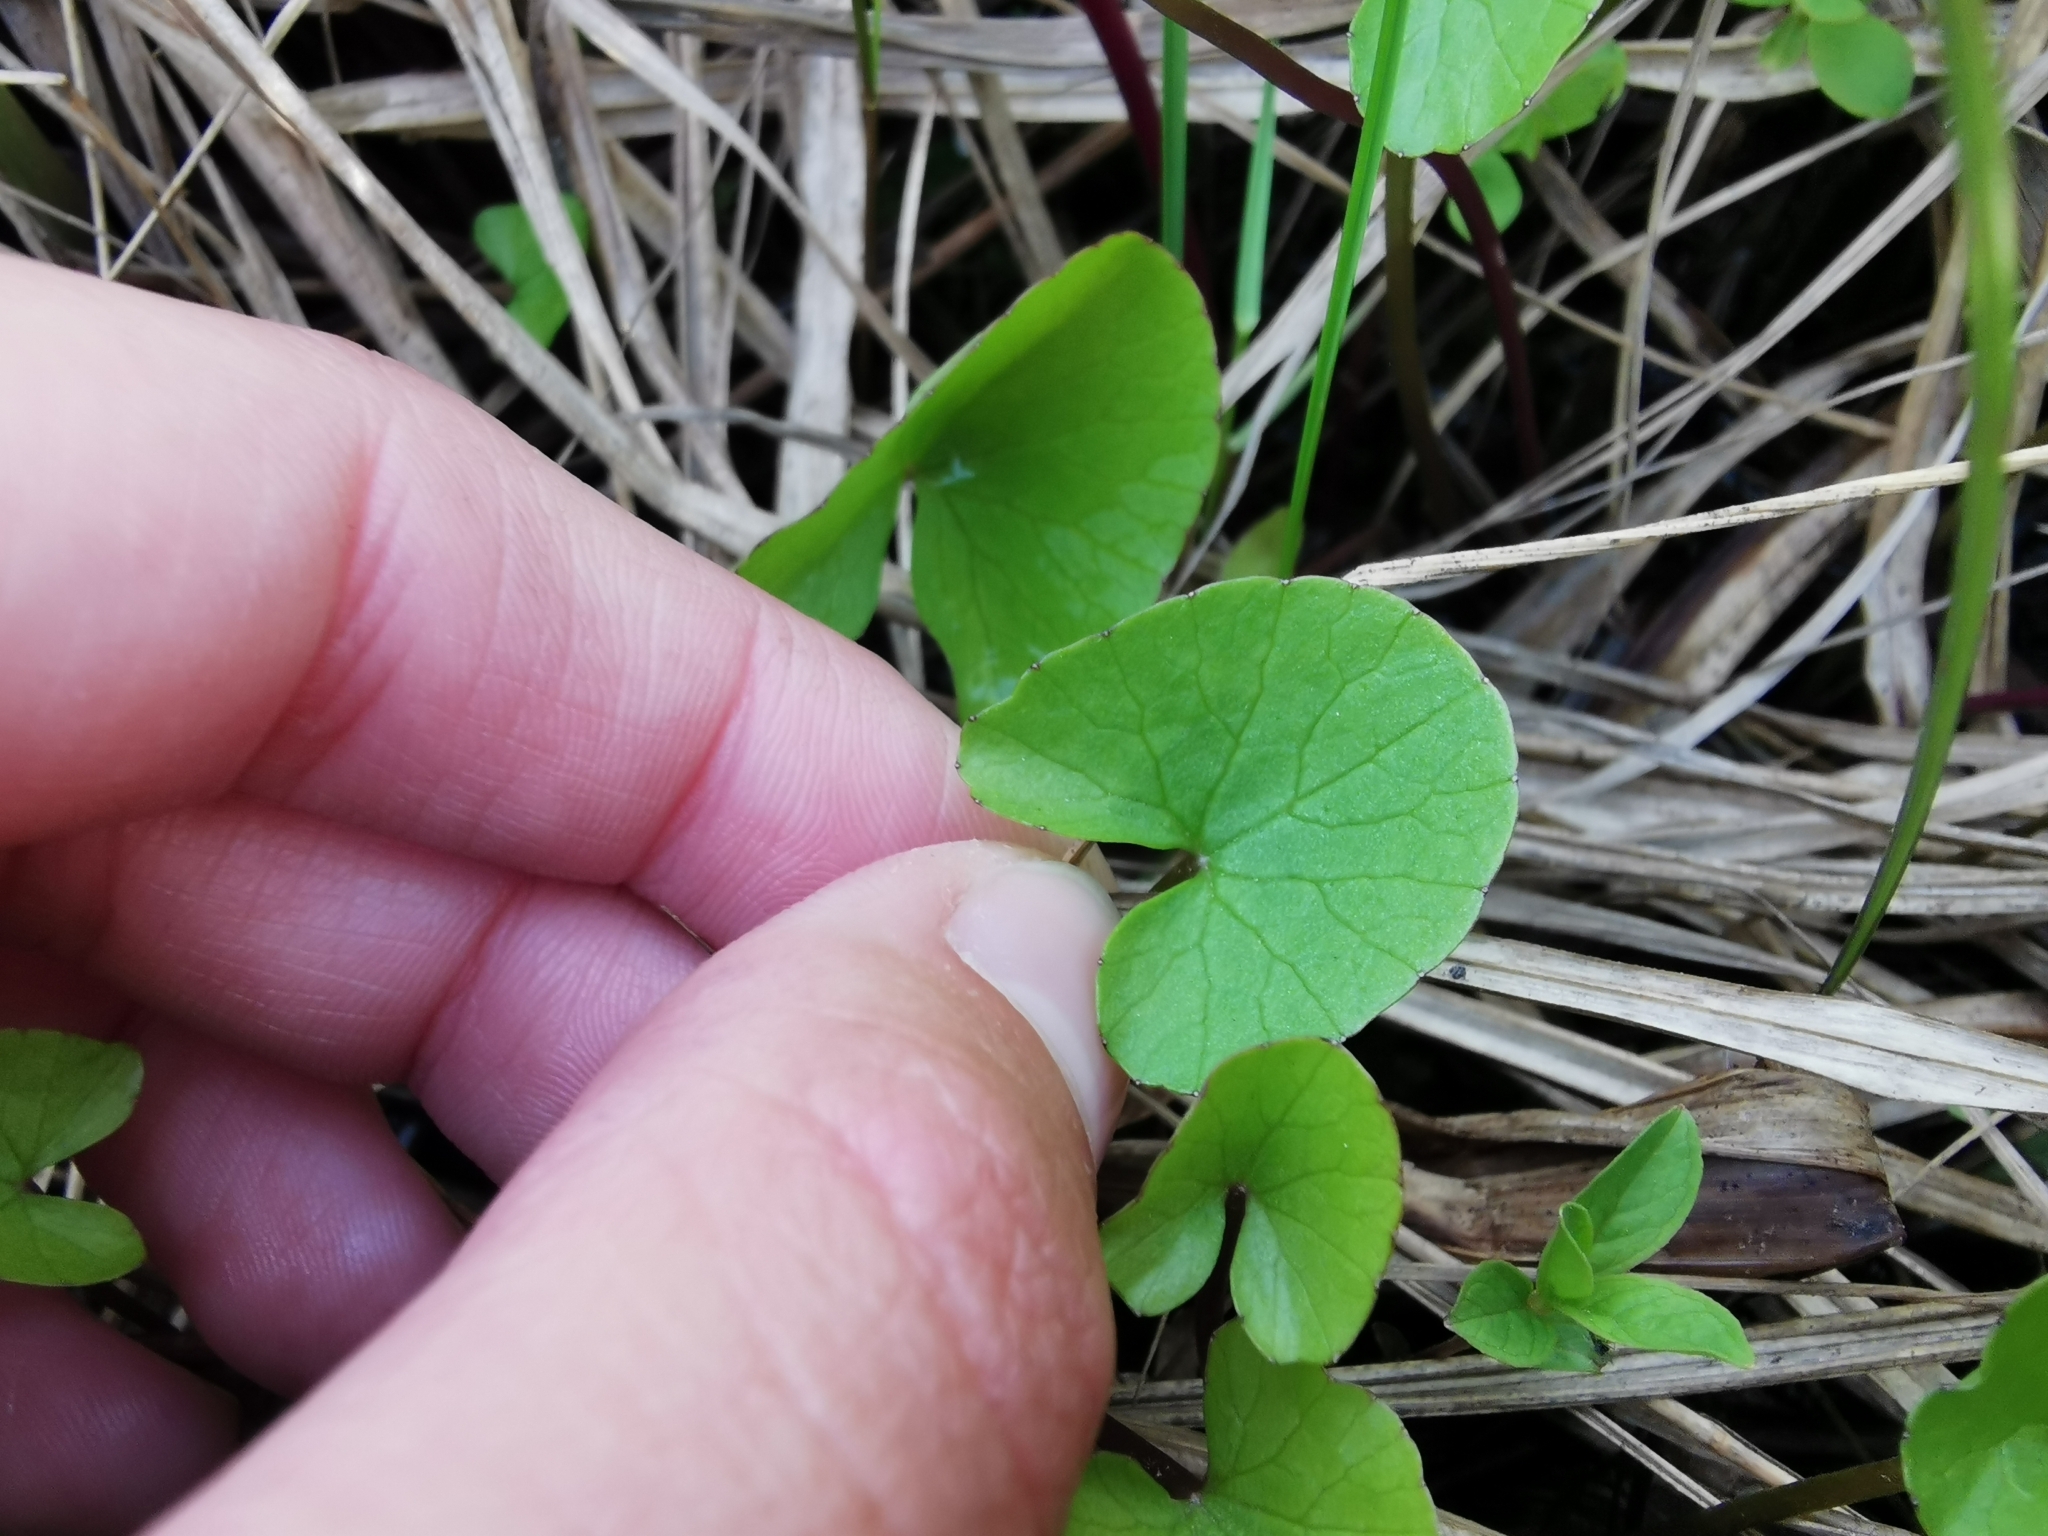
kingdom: Plantae
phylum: Tracheophyta
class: Magnoliopsida
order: Ranunculales
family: Ranunculaceae
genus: Caltha
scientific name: Caltha sibirica
